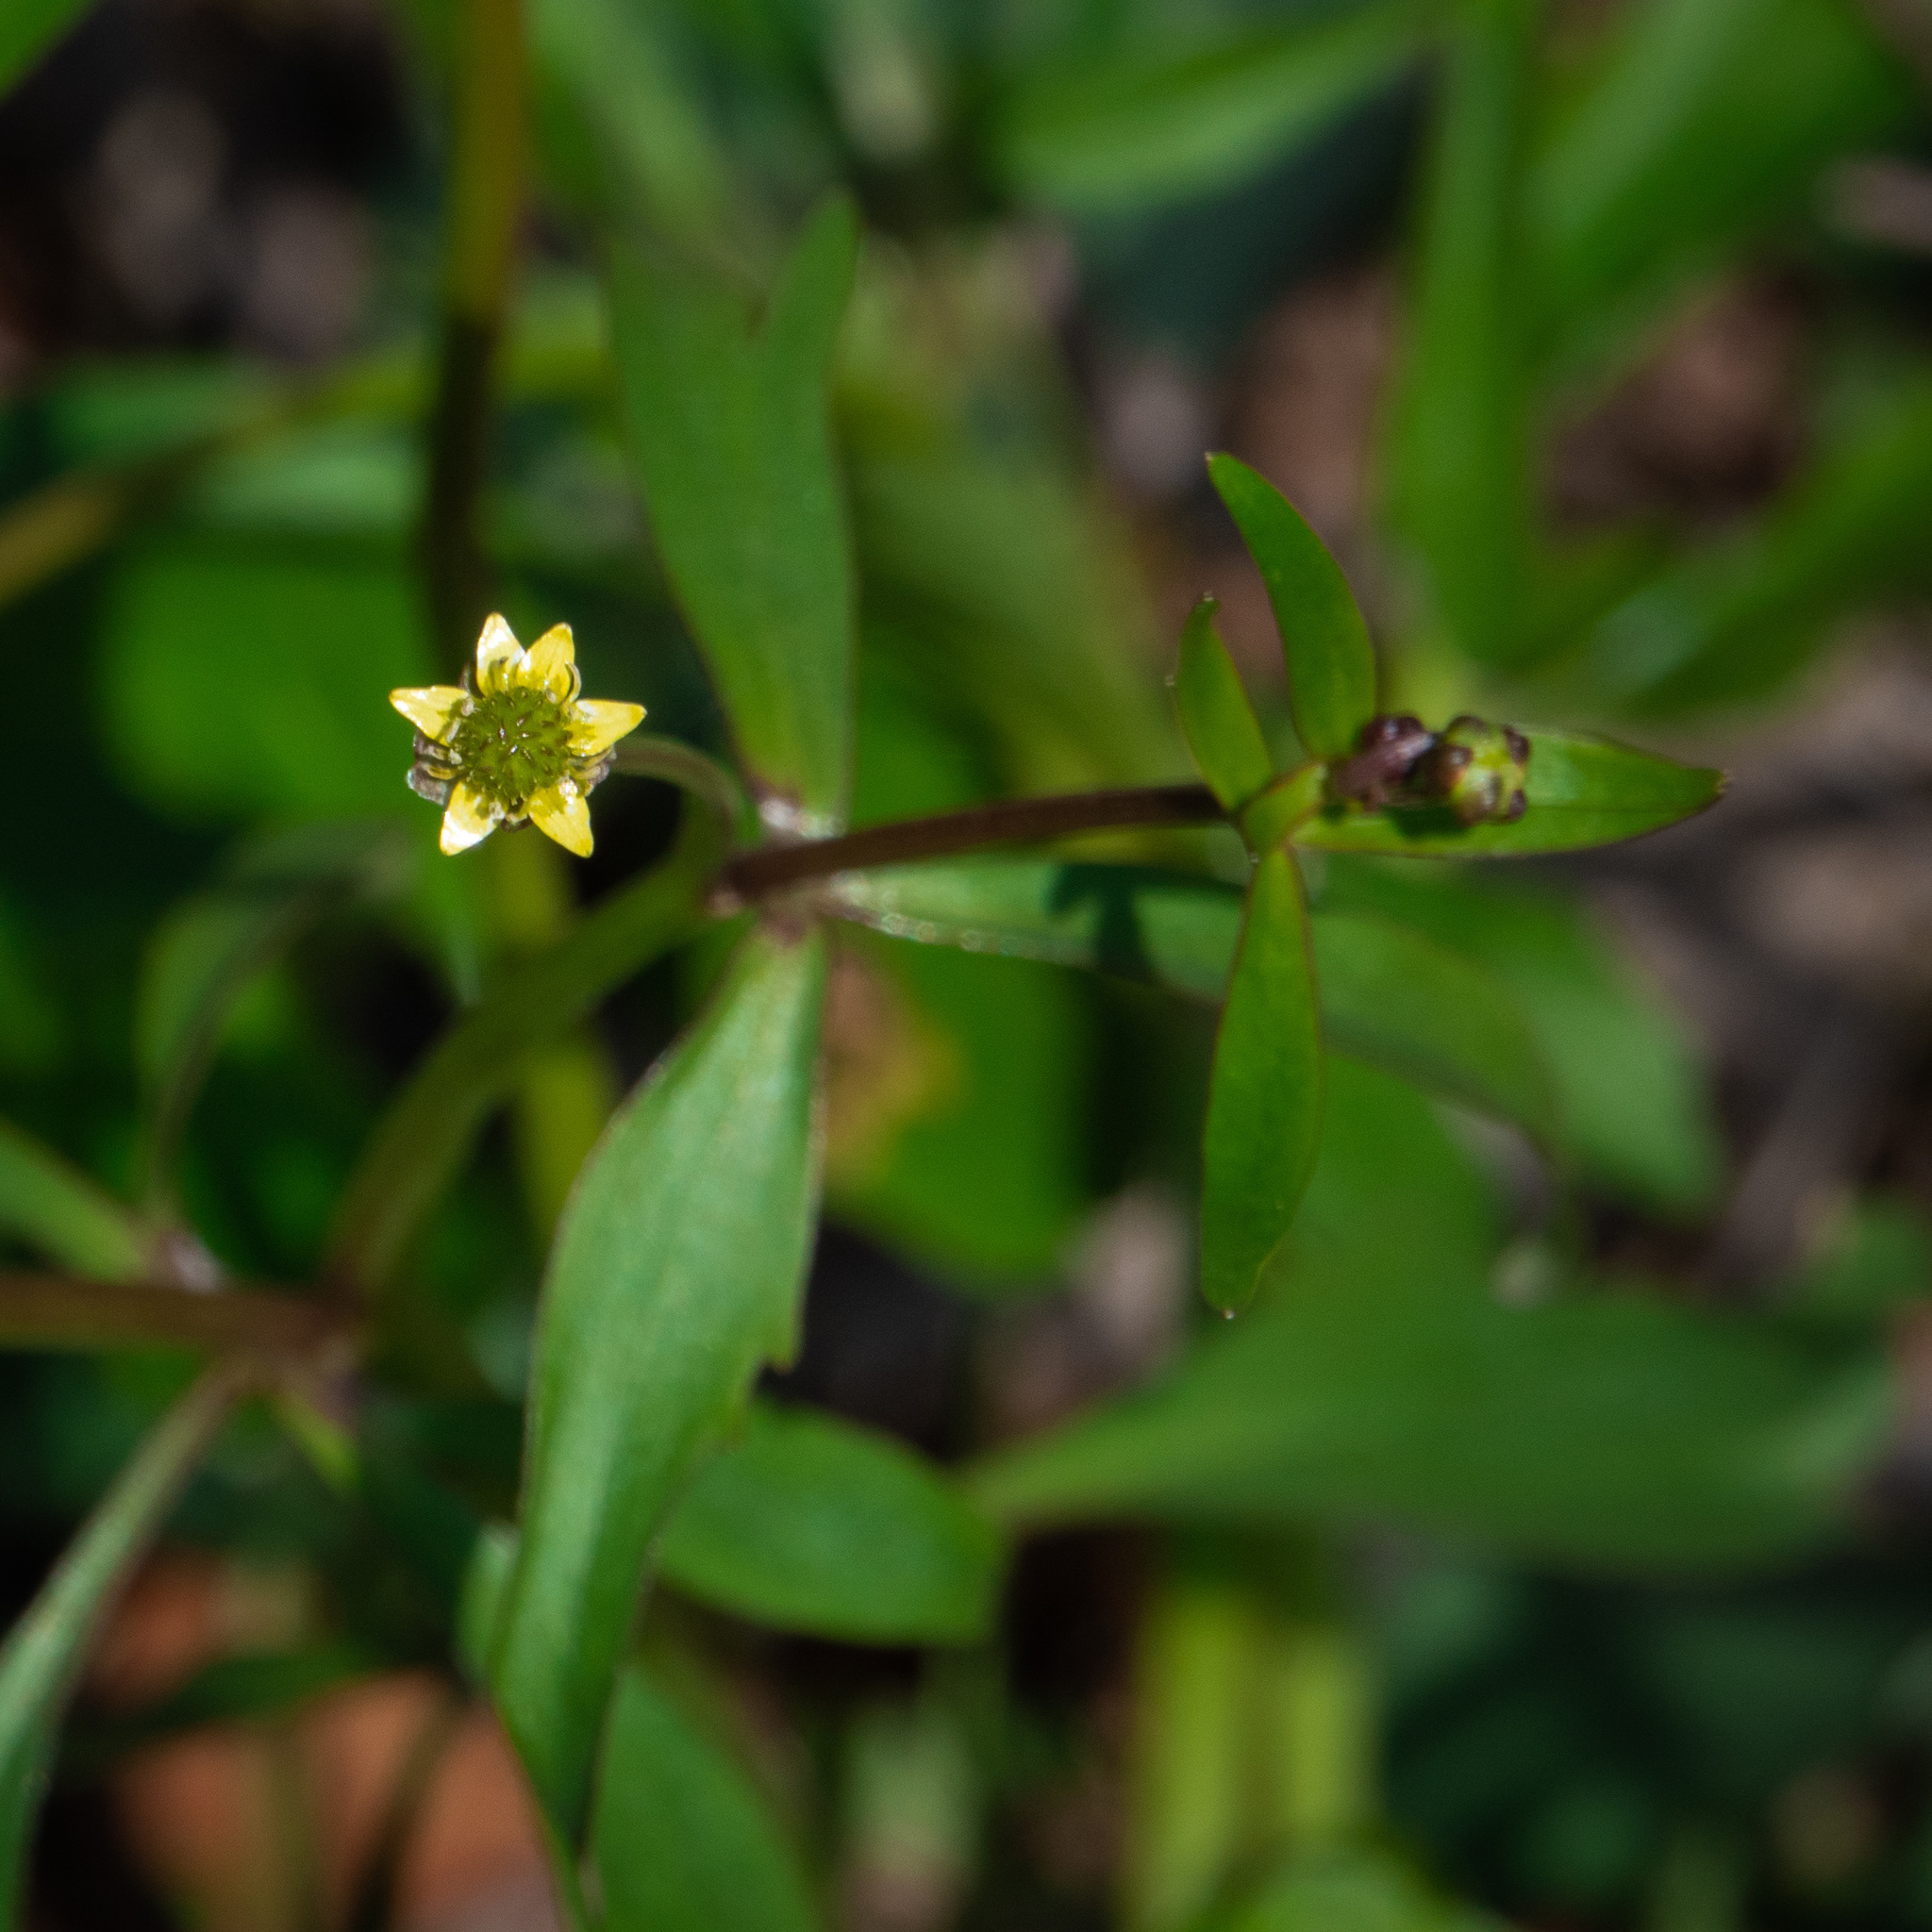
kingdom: Plantae
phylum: Tracheophyta
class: Magnoliopsida
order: Ranunculales
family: Ranunculaceae
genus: Ranunculus
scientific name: Ranunculus abortivus
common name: Early wood buttercup
